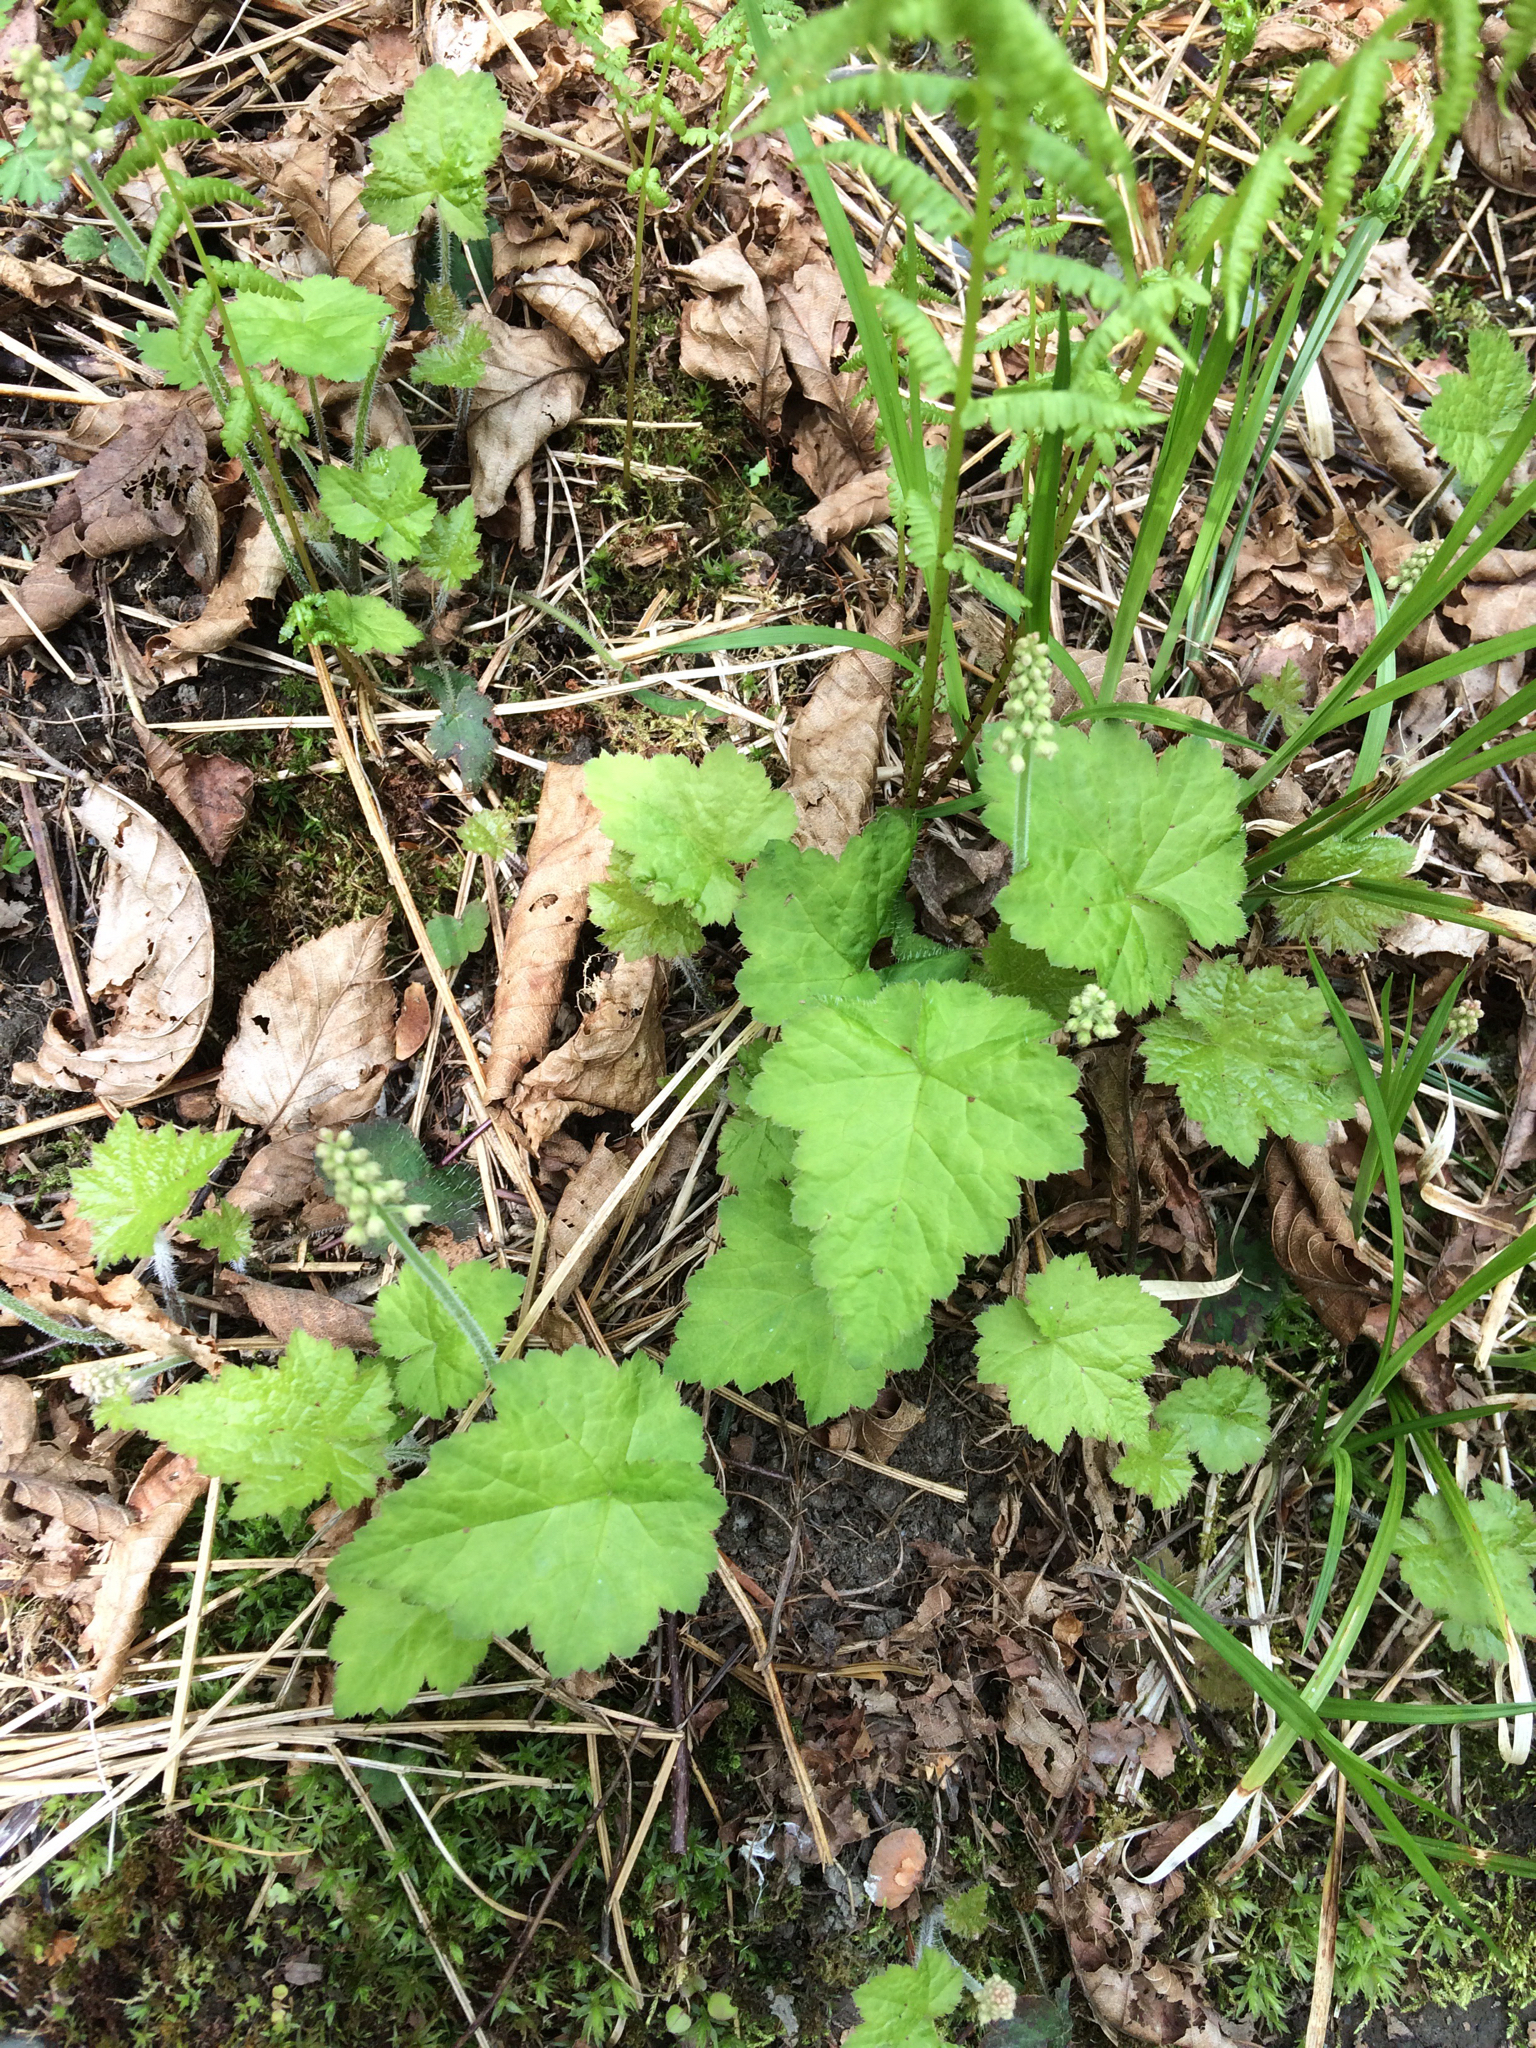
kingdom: Plantae
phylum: Tracheophyta
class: Magnoliopsida
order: Saxifragales
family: Saxifragaceae
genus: Tiarella
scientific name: Tiarella stolonifera
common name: Stoloniferous foamflower
